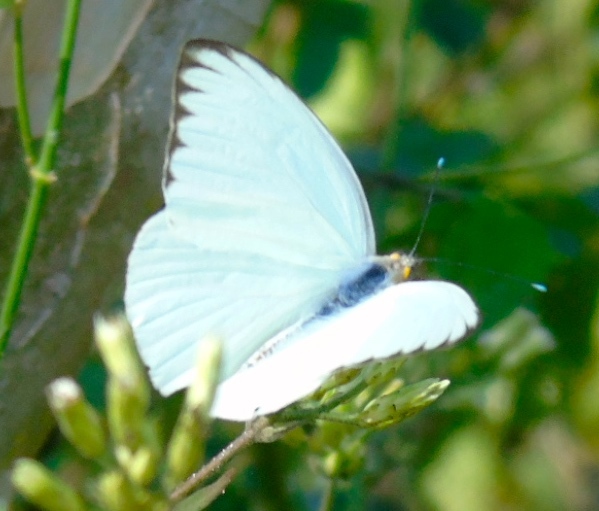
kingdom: Animalia
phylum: Arthropoda
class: Insecta
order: Lepidoptera
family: Pieridae
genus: Ascia
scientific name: Ascia monuste
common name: Great southern white
